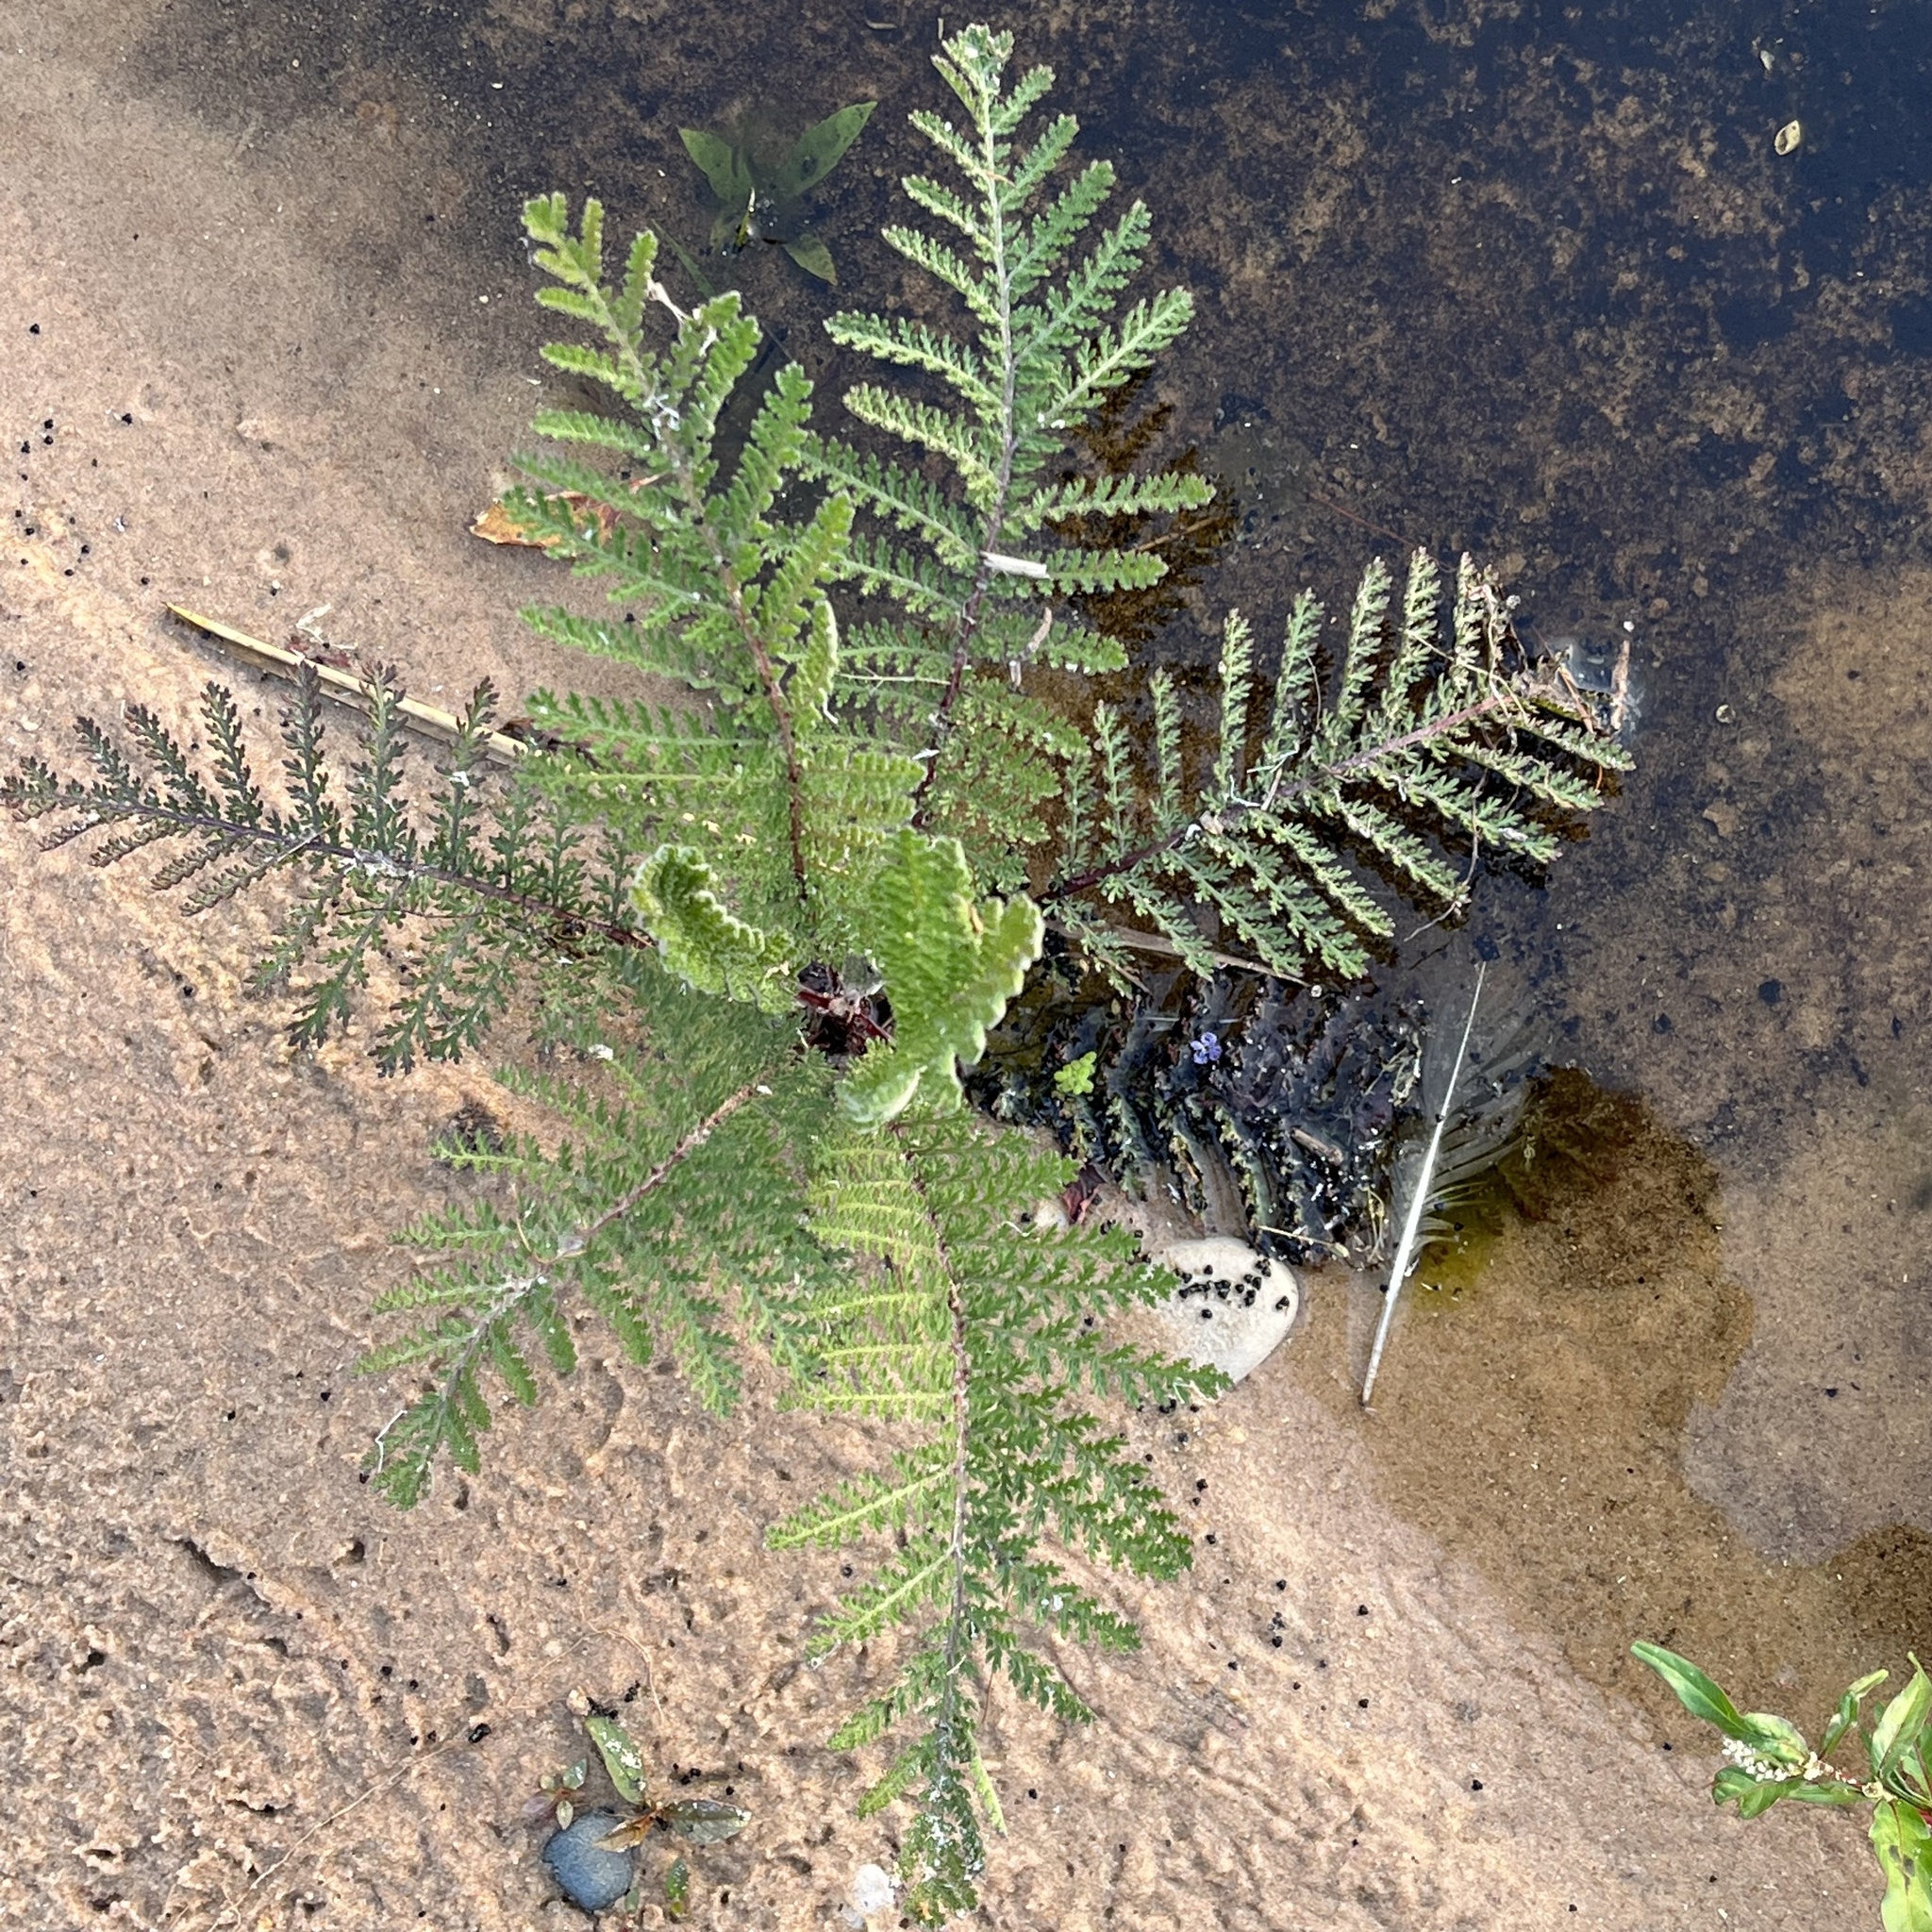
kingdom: Plantae
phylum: Tracheophyta
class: Magnoliopsida
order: Asterales
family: Asteraceae
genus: Tanacetum
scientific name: Tanacetum bipinnatum
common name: Dwarf tansy
